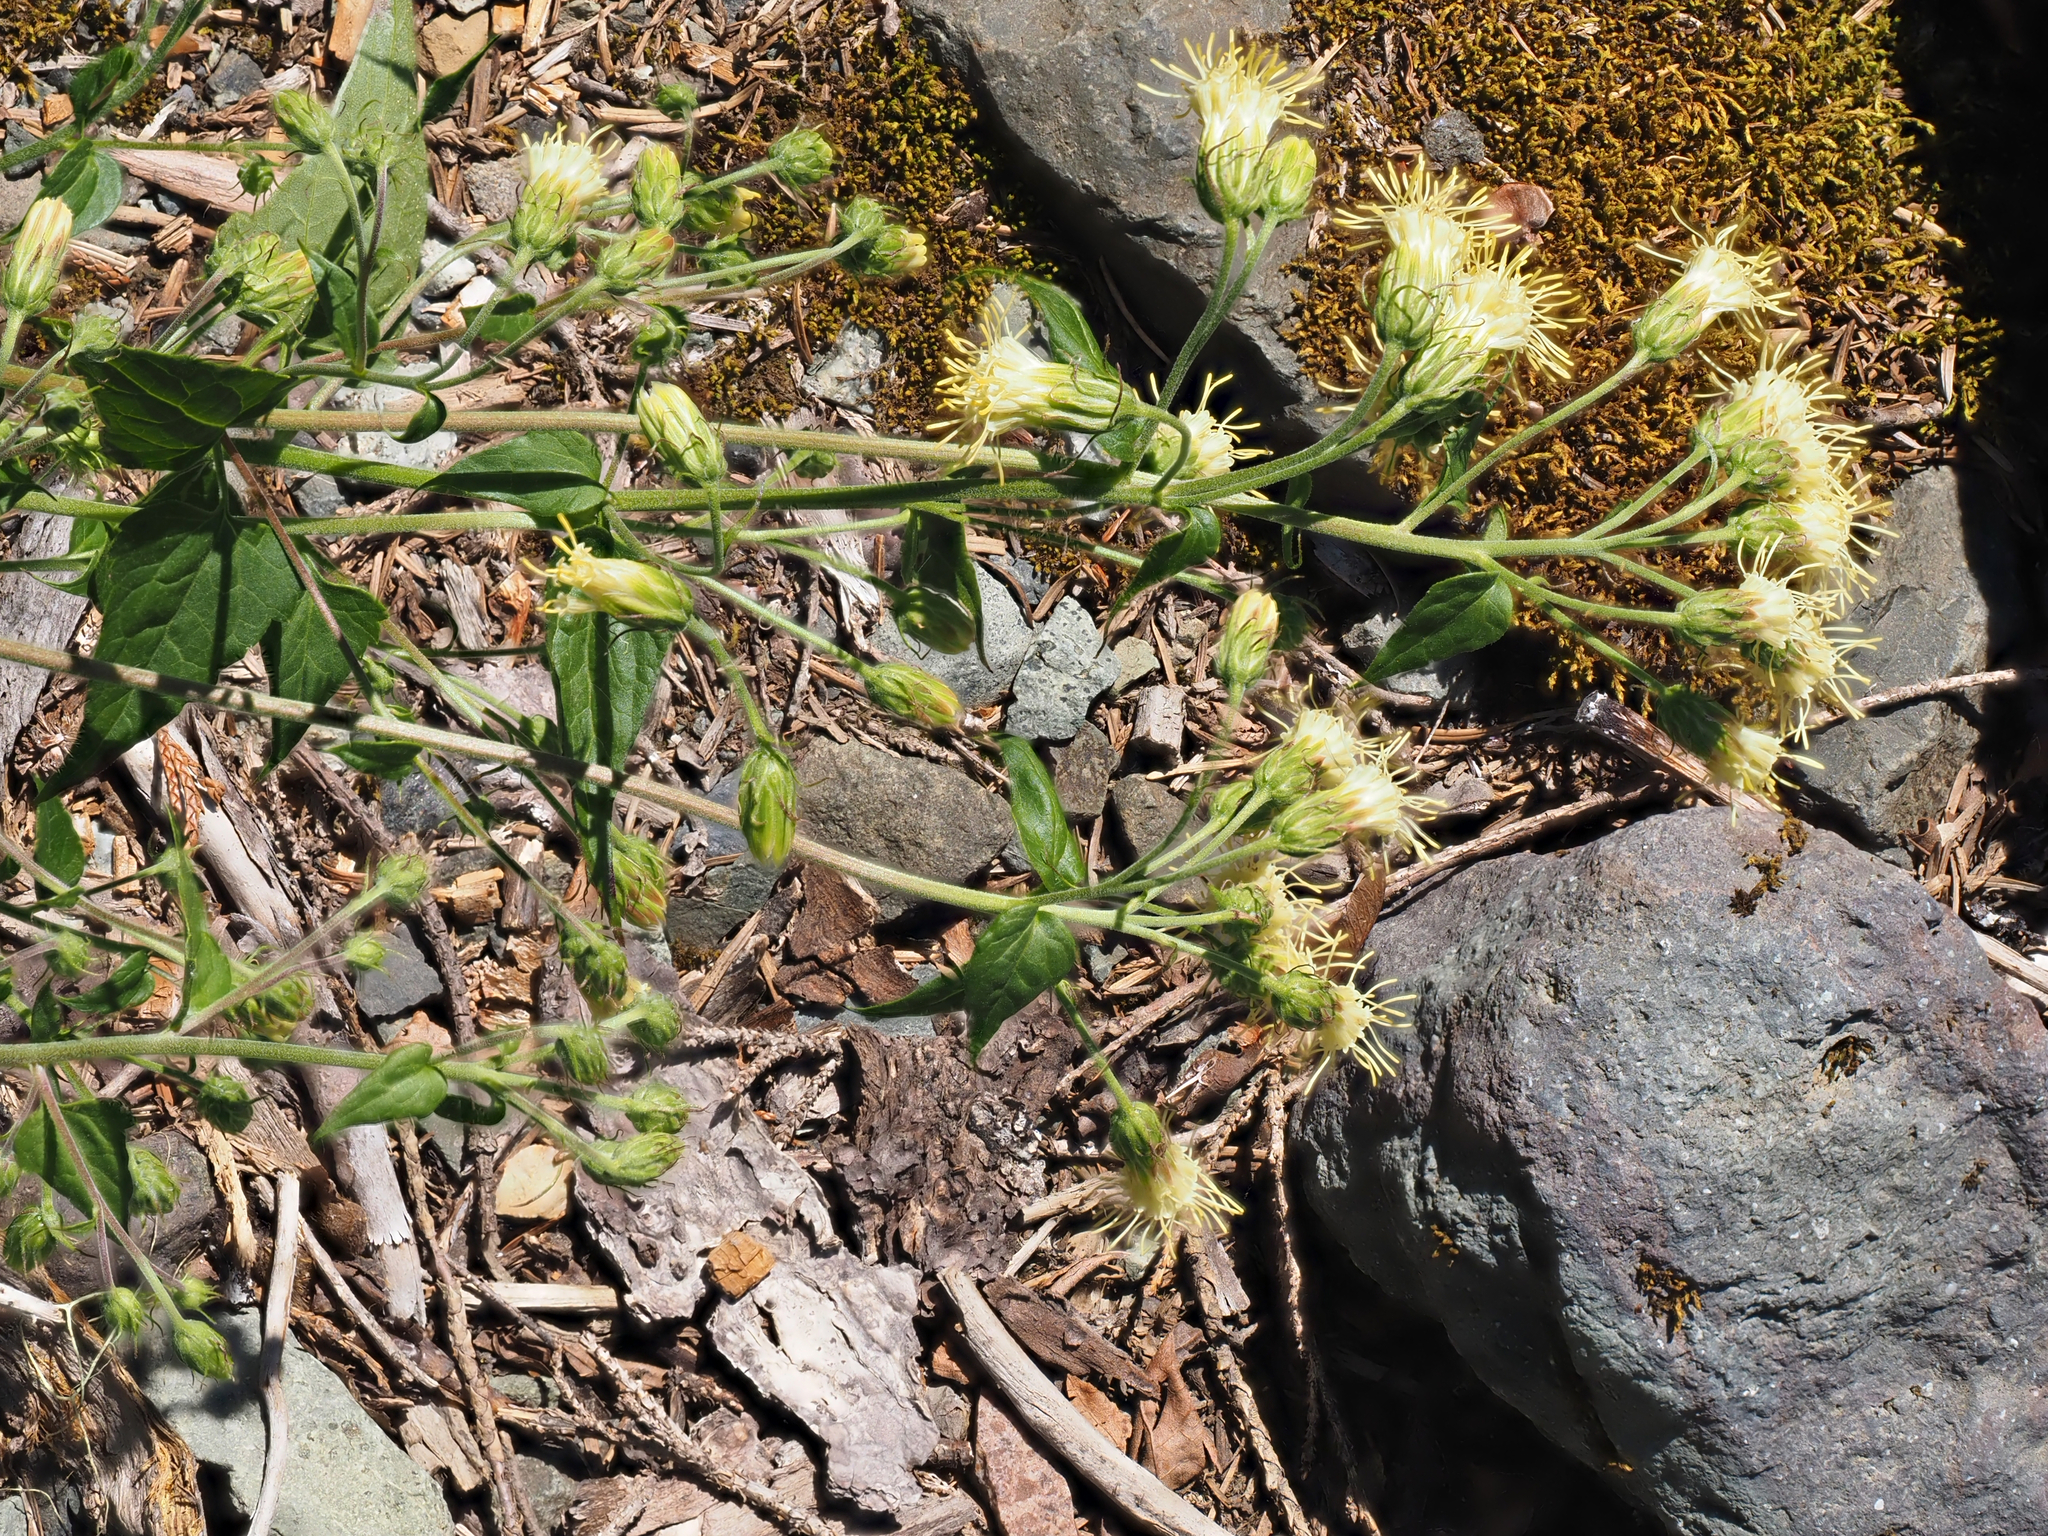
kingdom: Plantae
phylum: Tracheophyta
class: Magnoliopsida
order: Asterales
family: Asteraceae
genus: Brickellia
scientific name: Brickellia grandiflora
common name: Large-flowered brickellia
